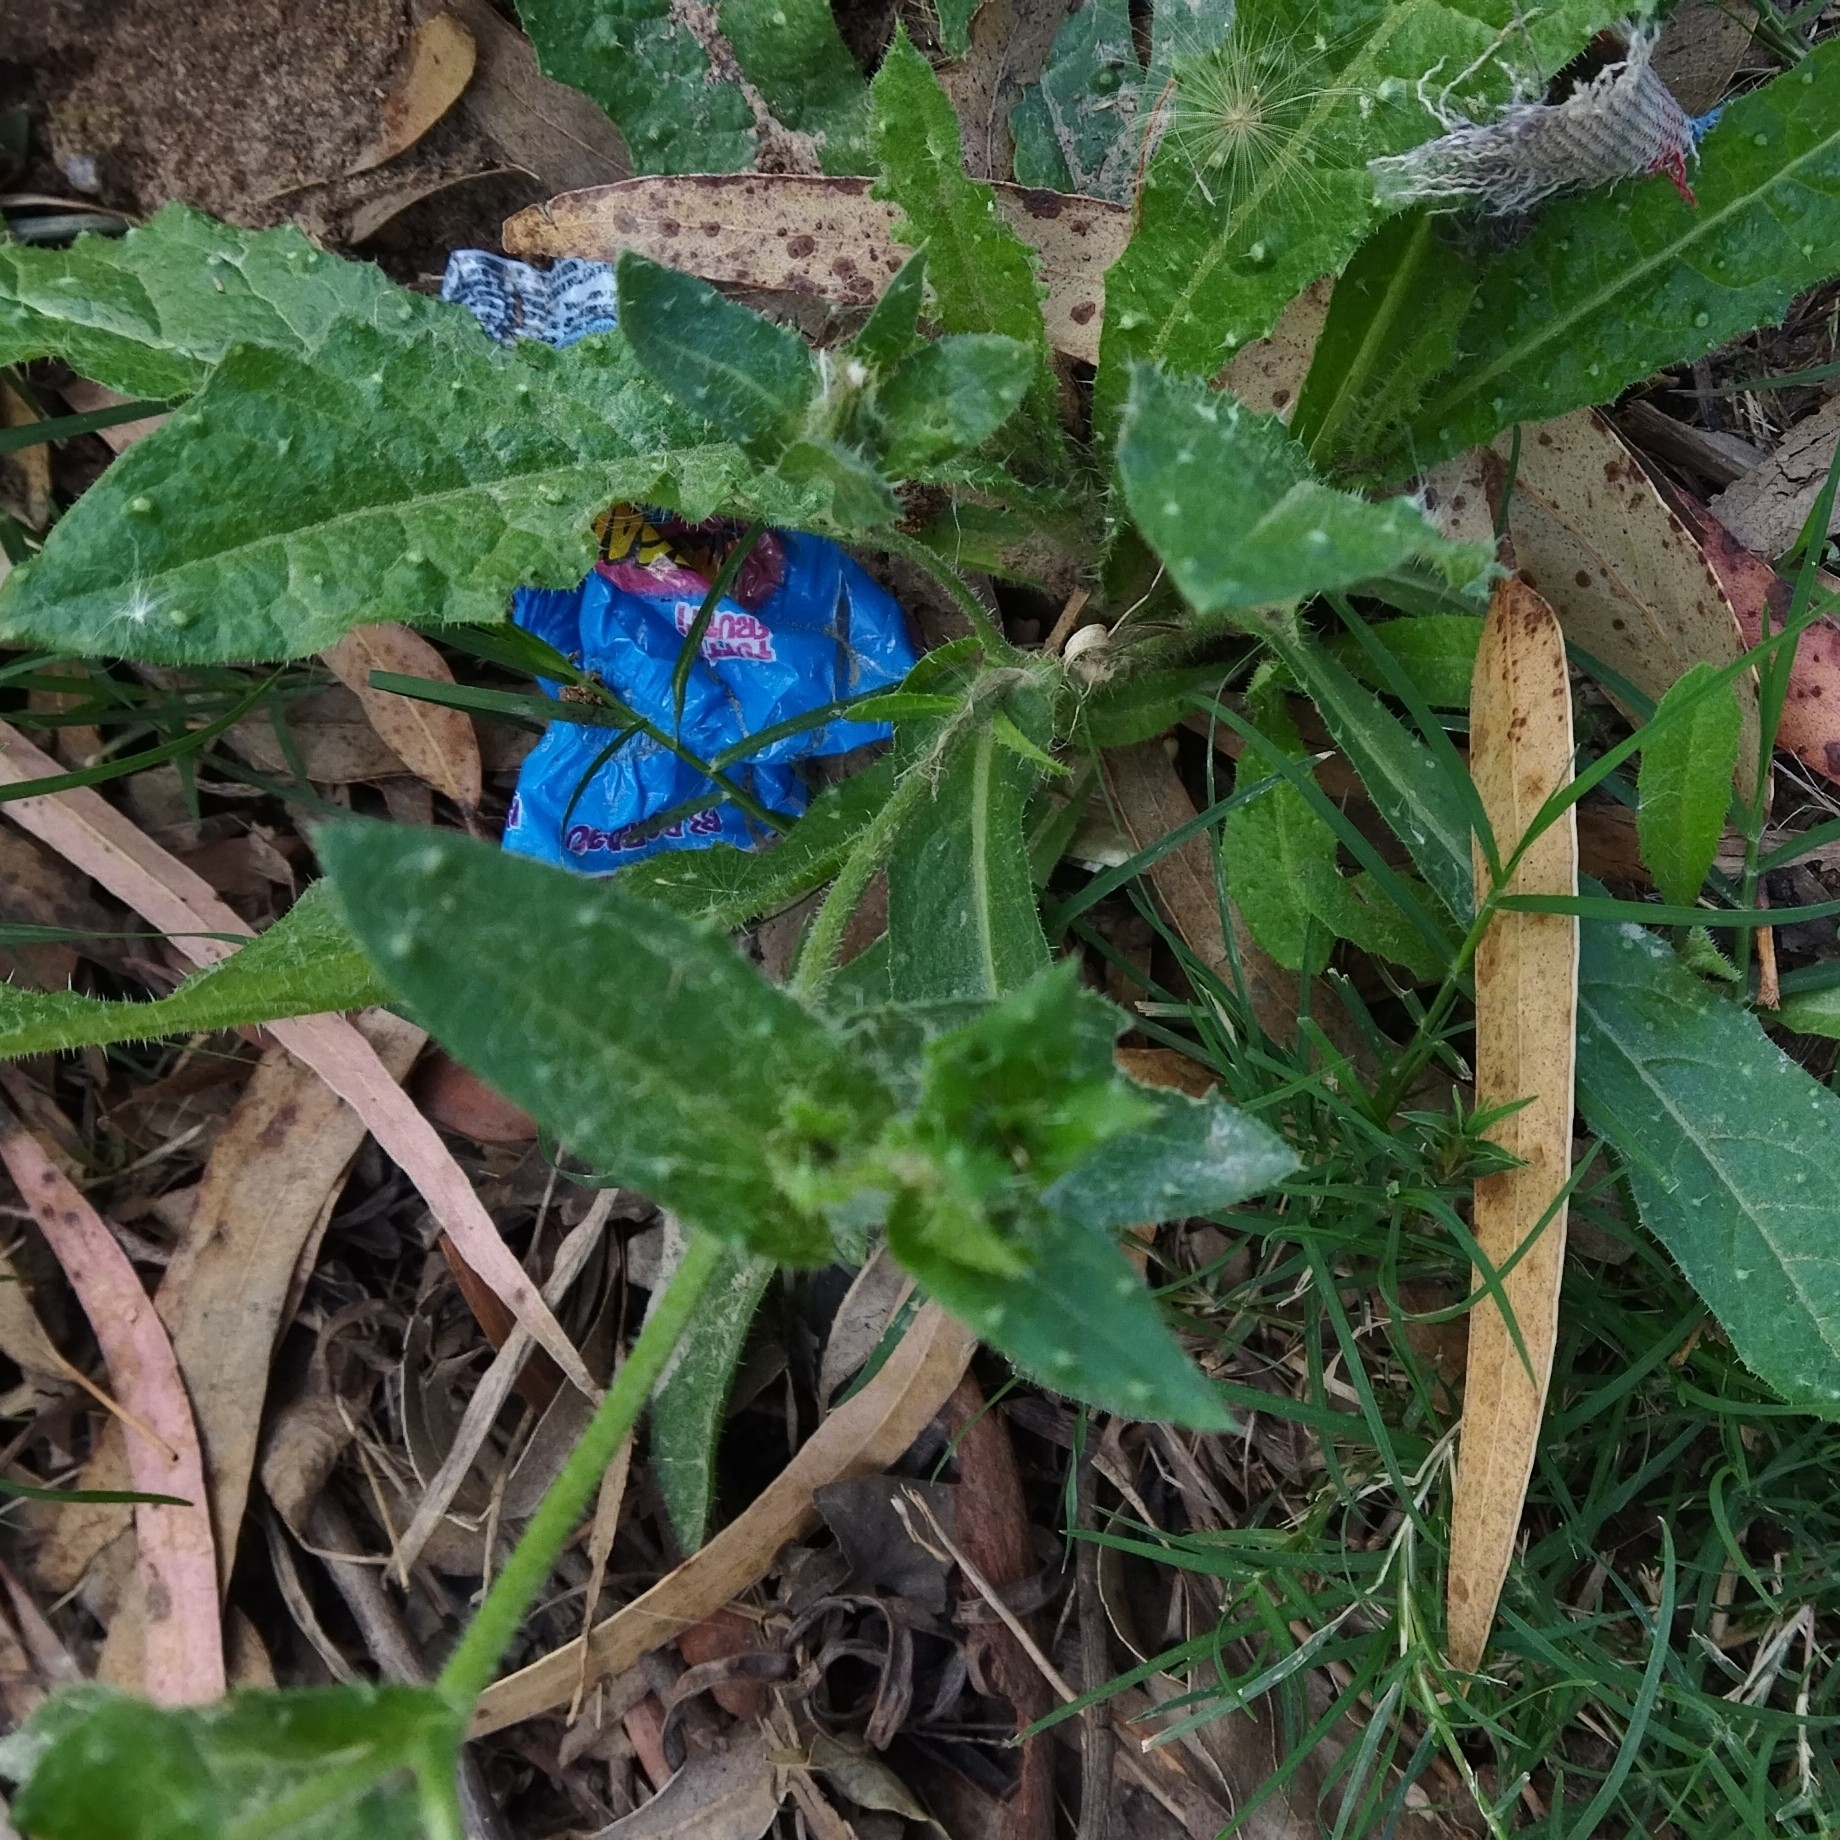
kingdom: Plantae
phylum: Tracheophyta
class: Magnoliopsida
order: Asterales
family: Asteraceae
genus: Helminthotheca
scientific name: Helminthotheca echioides
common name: Ox-tongue
